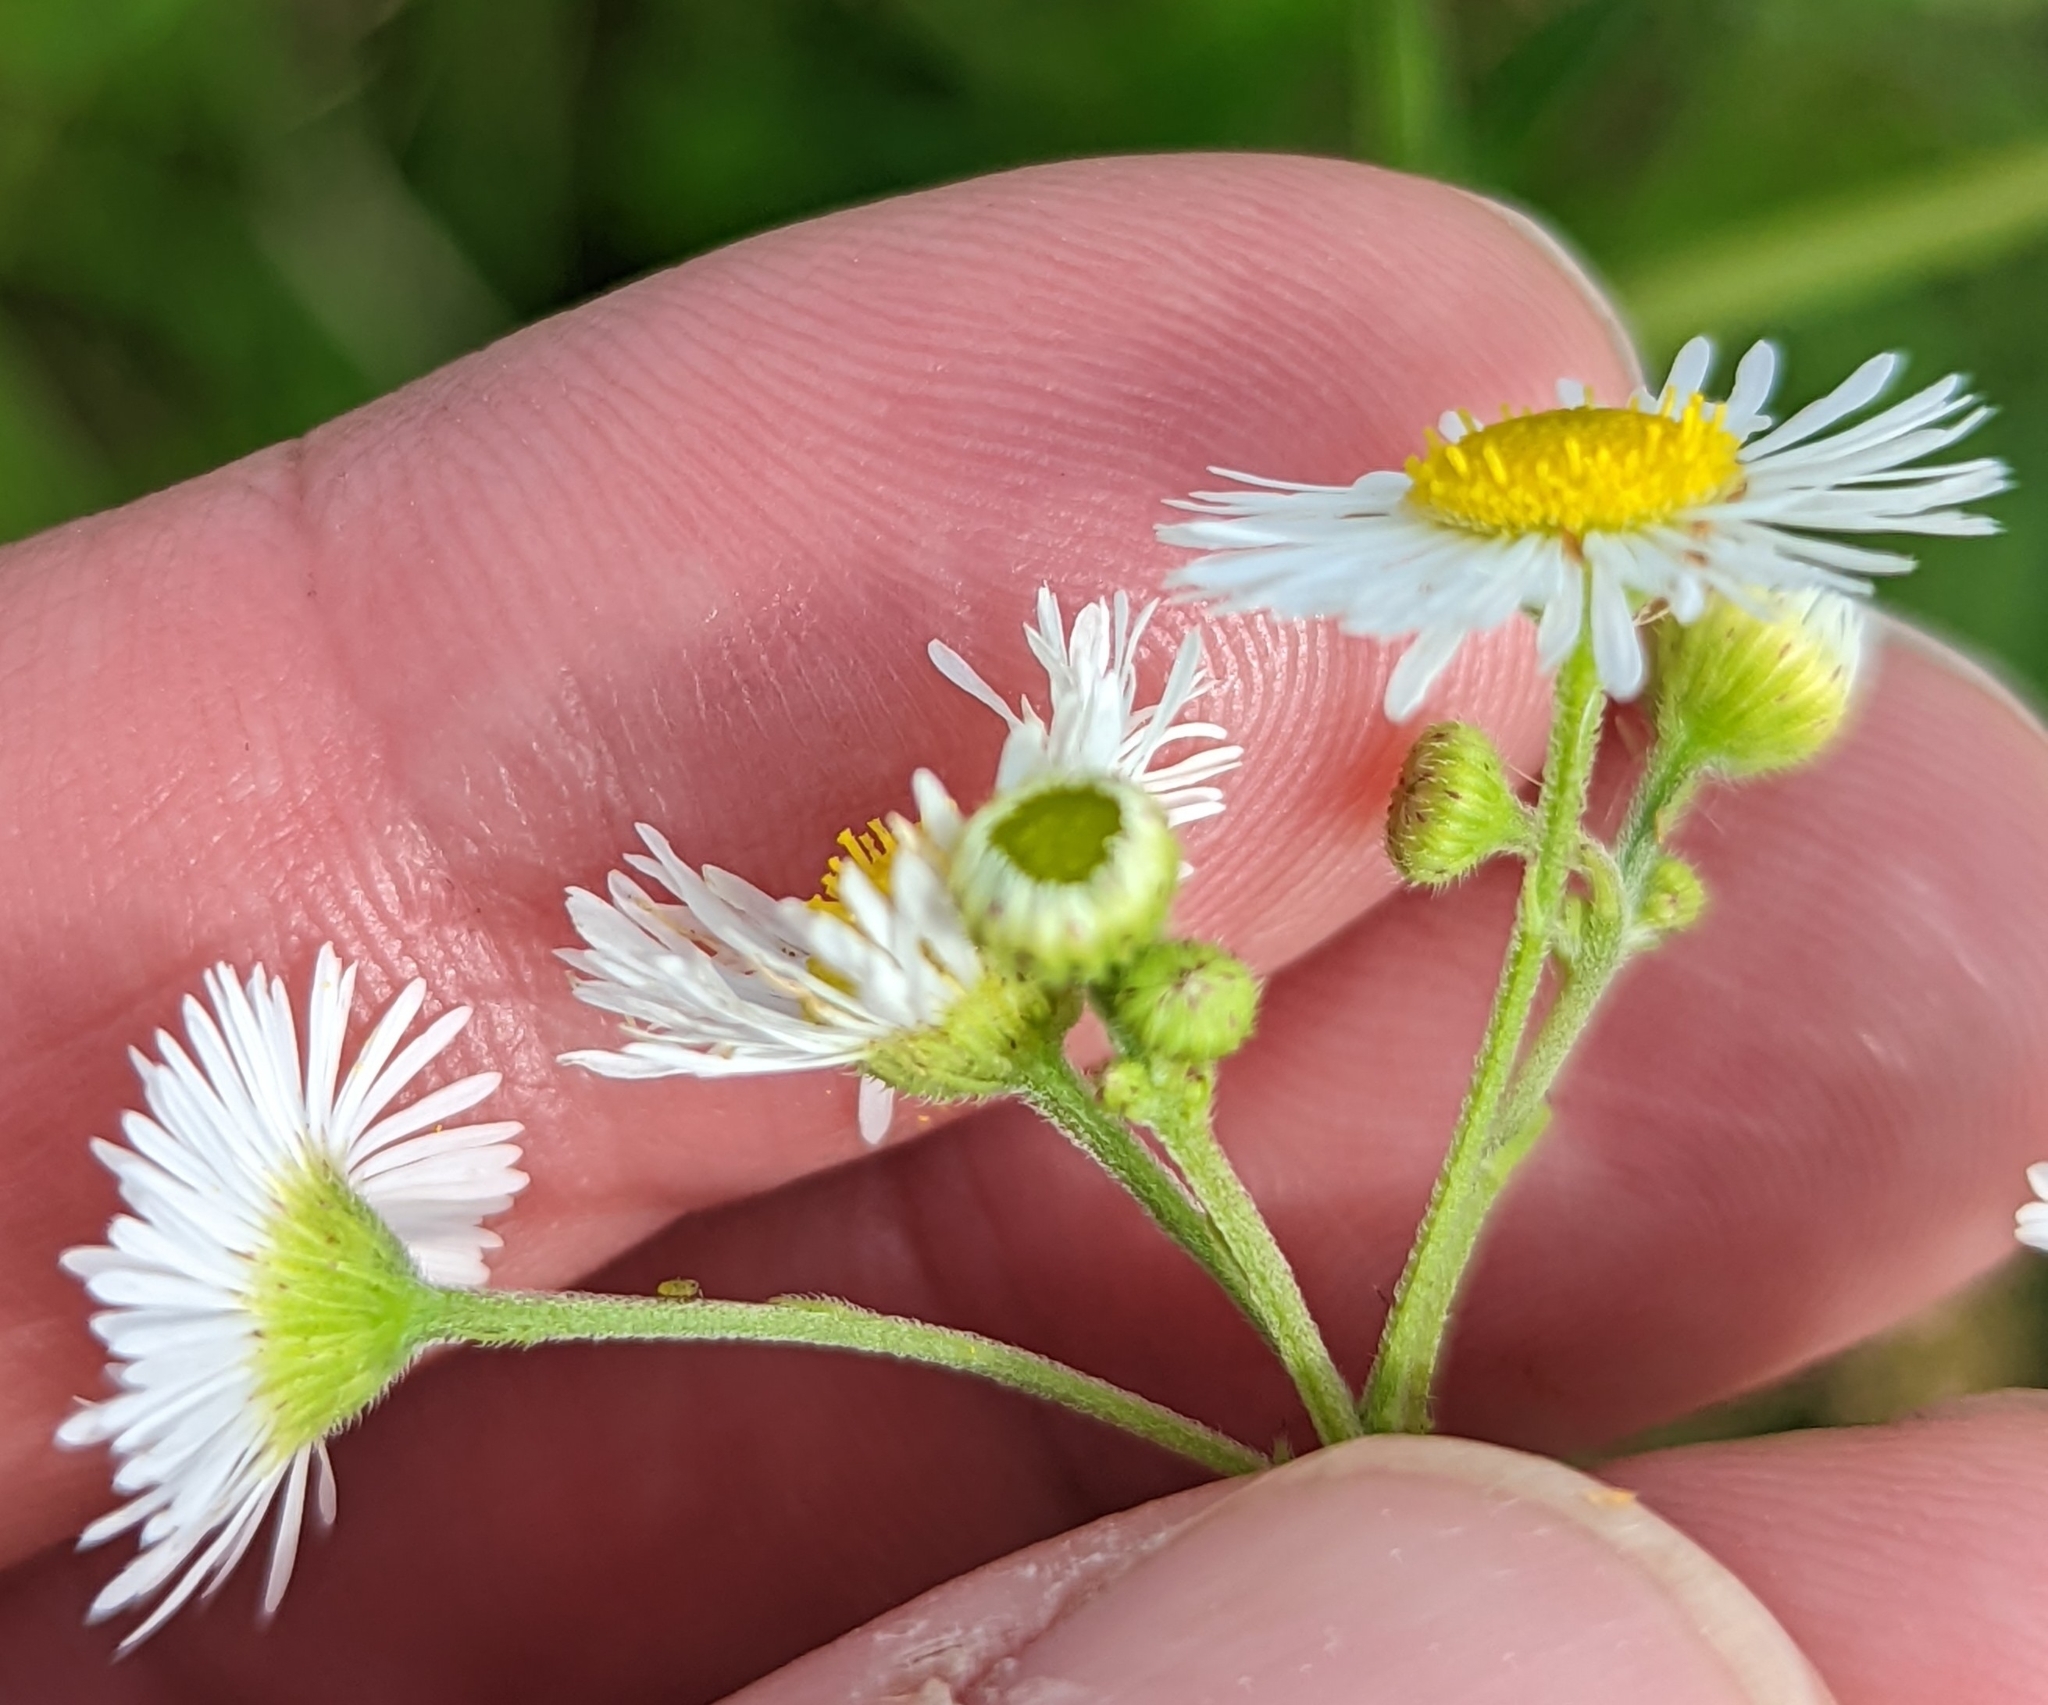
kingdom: Plantae
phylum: Tracheophyta
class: Magnoliopsida
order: Asterales
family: Asteraceae
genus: Erigeron
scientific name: Erigeron strigosus
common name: Common eastern fleabane
